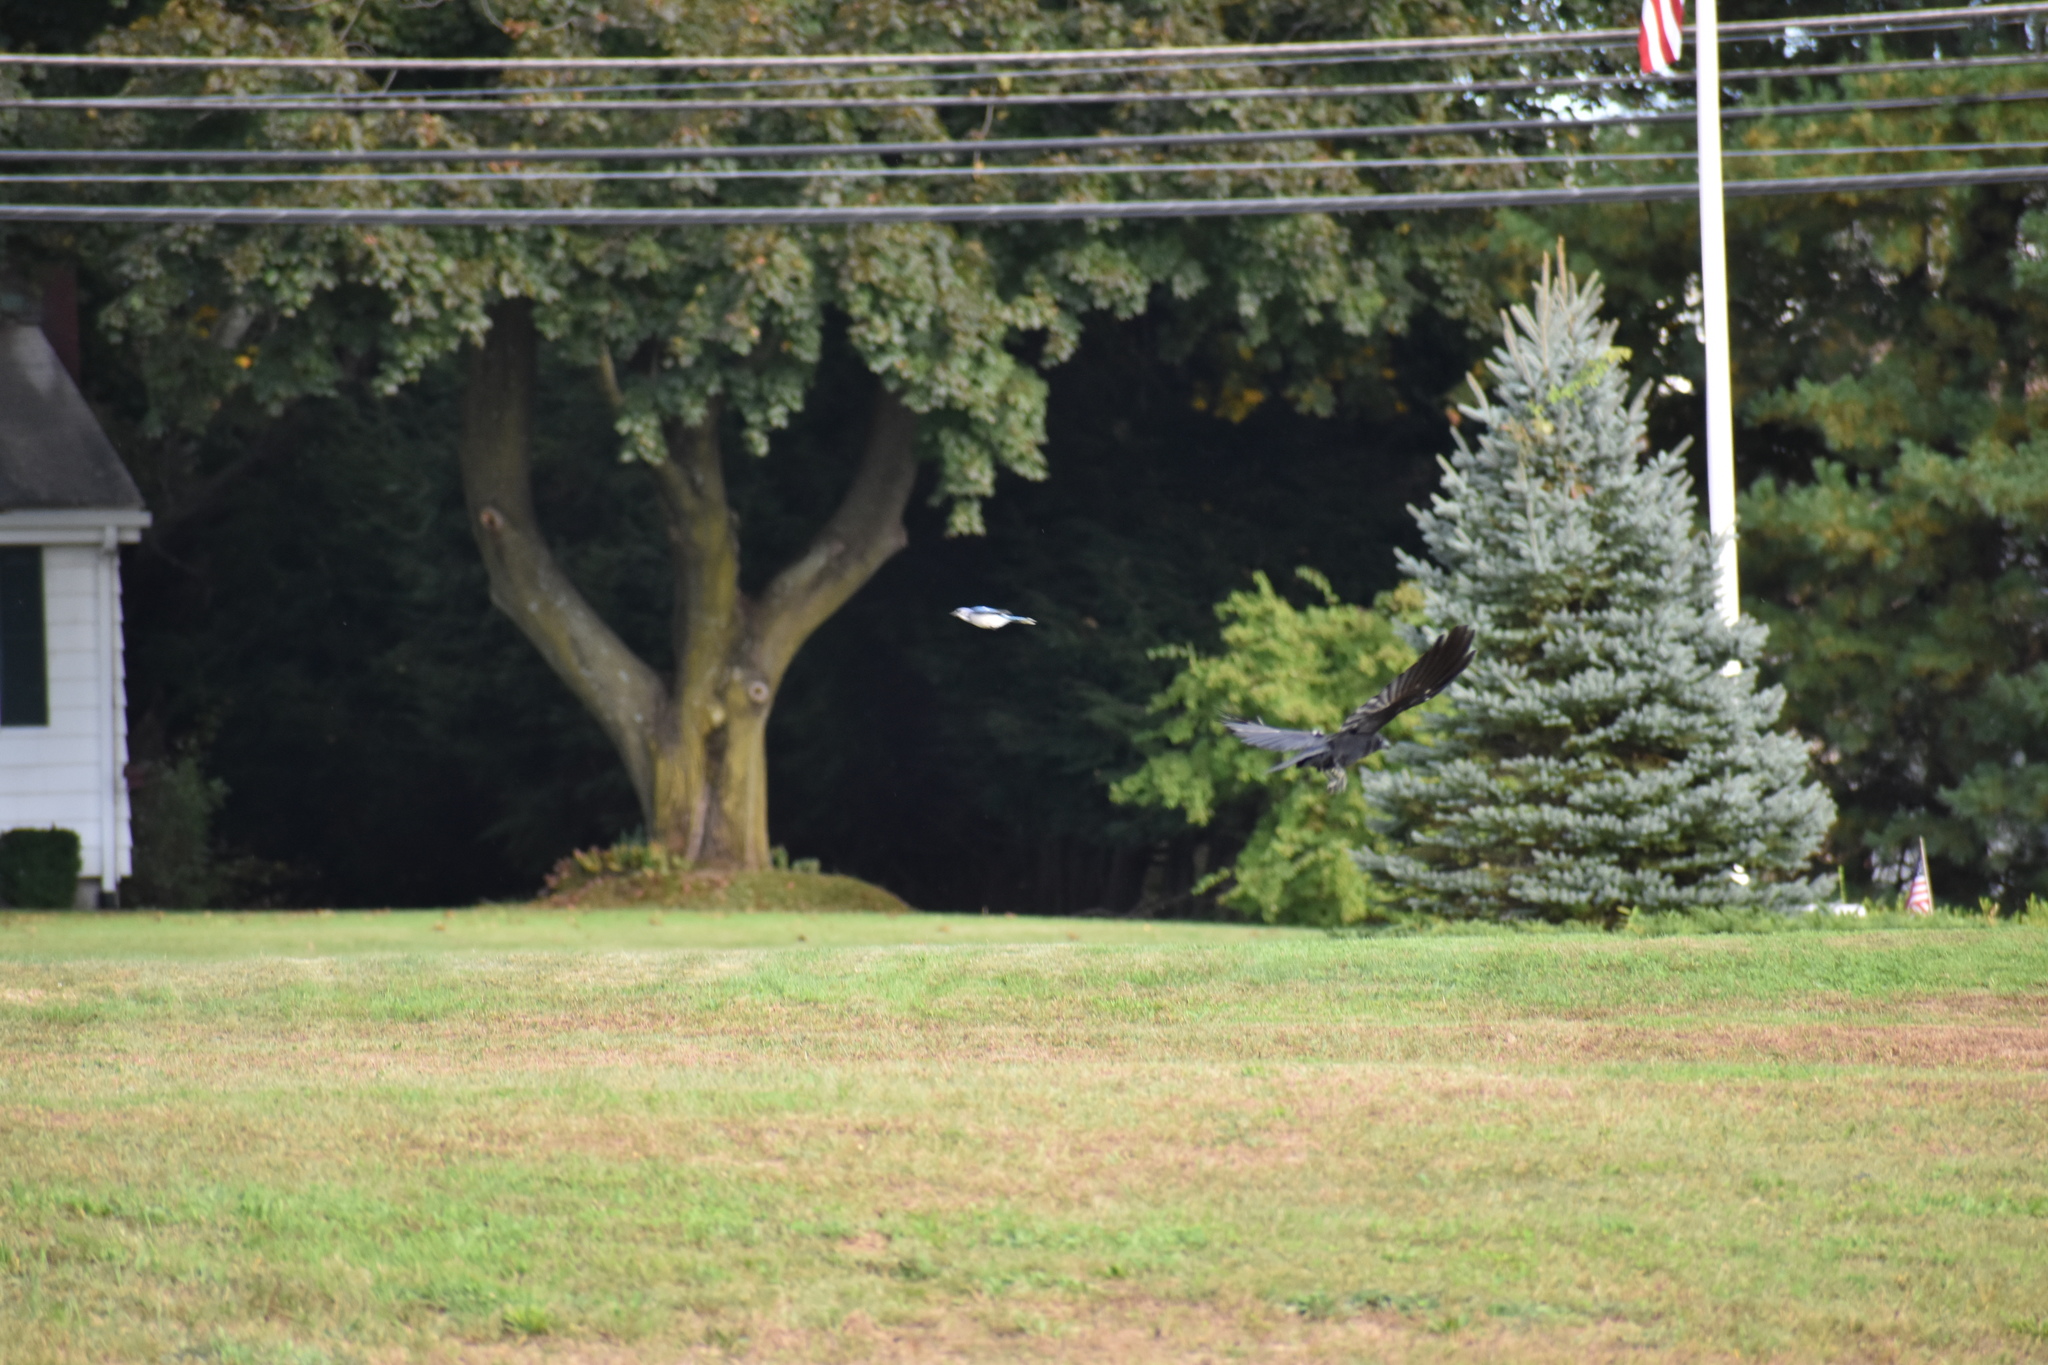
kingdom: Animalia
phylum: Chordata
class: Aves
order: Passeriformes
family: Corvidae
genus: Corvus
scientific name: Corvus
